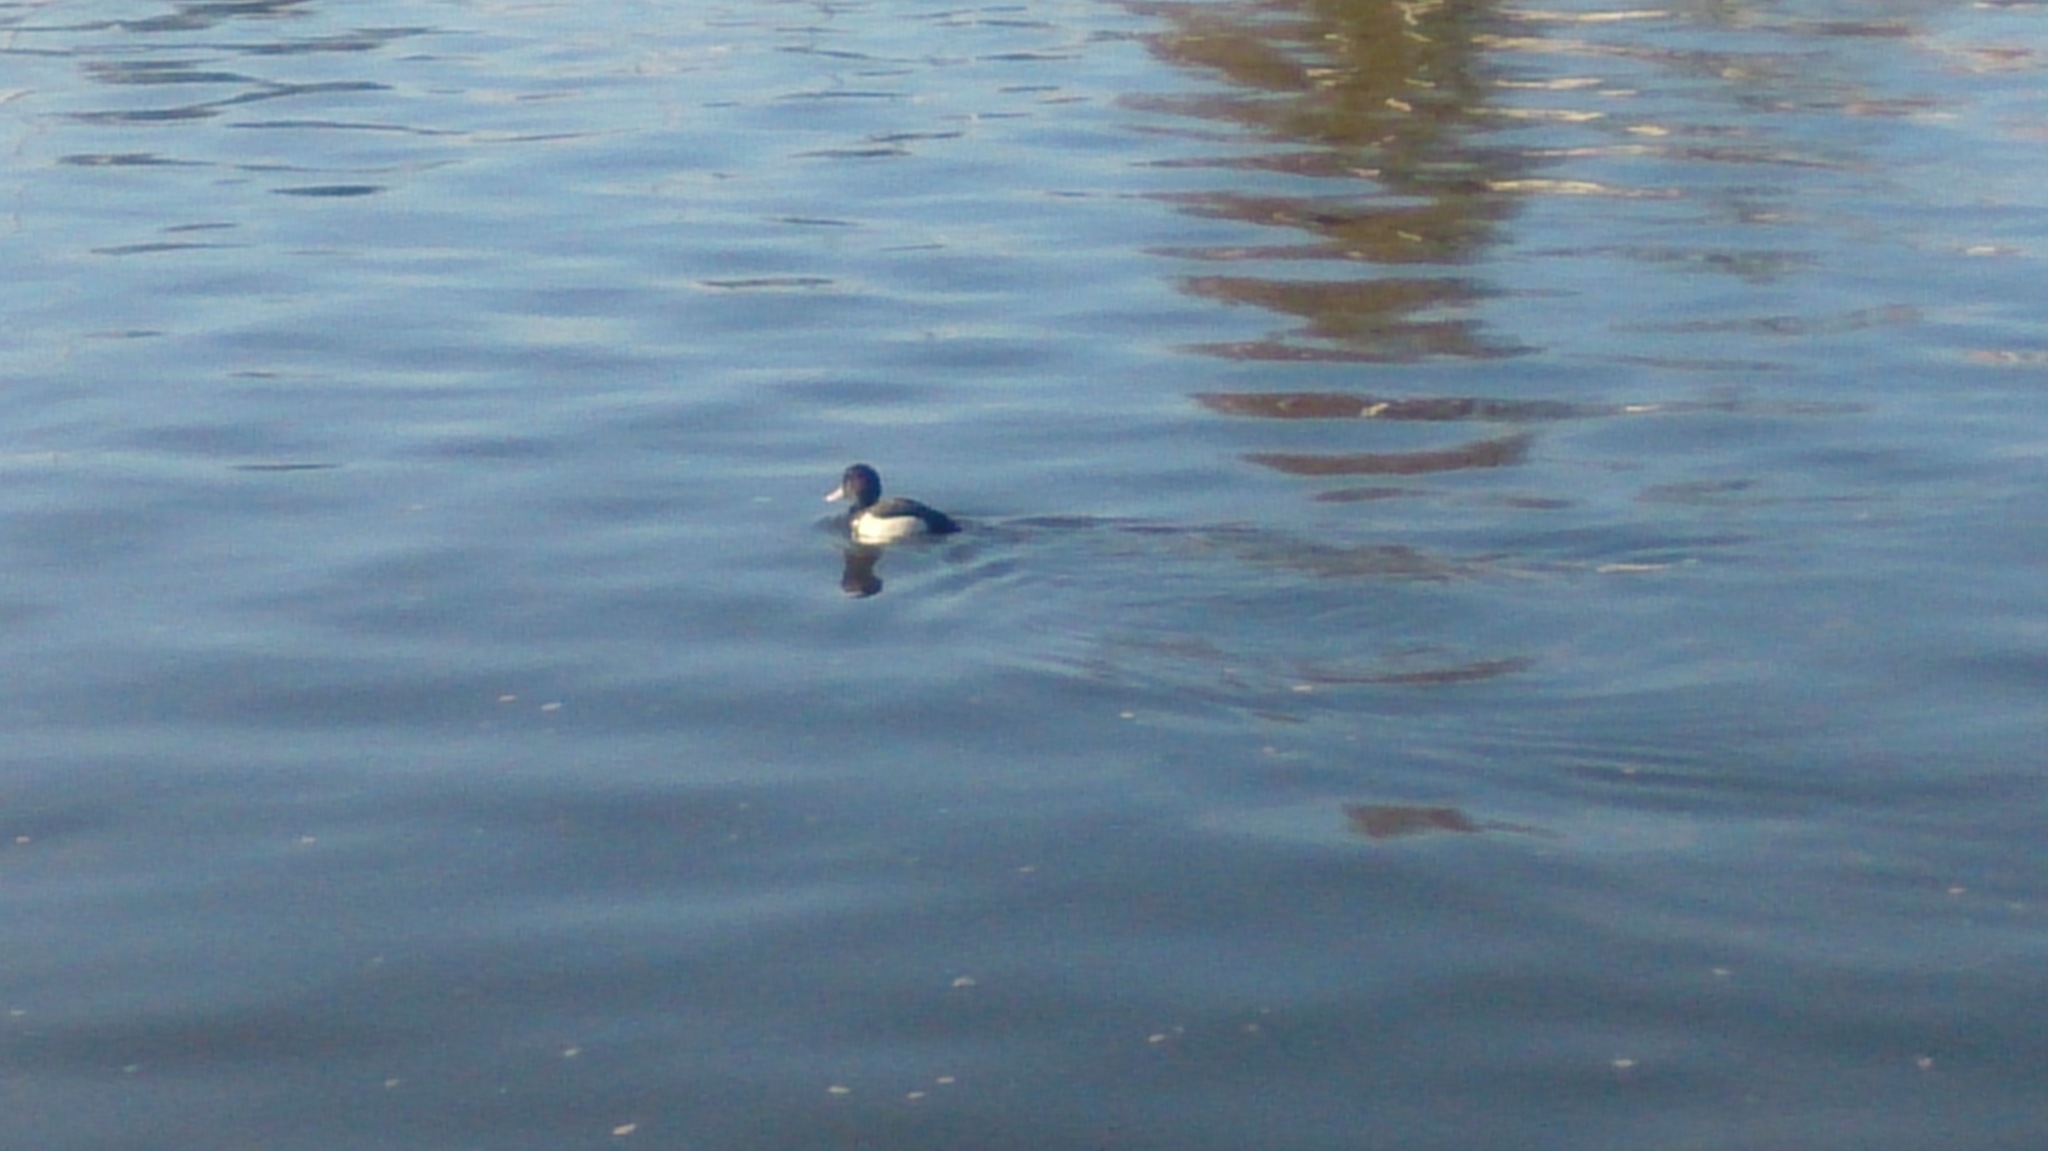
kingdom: Animalia
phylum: Chordata
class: Aves
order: Anseriformes
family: Anatidae
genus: Aythya
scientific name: Aythya fuligula
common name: Tufted duck
